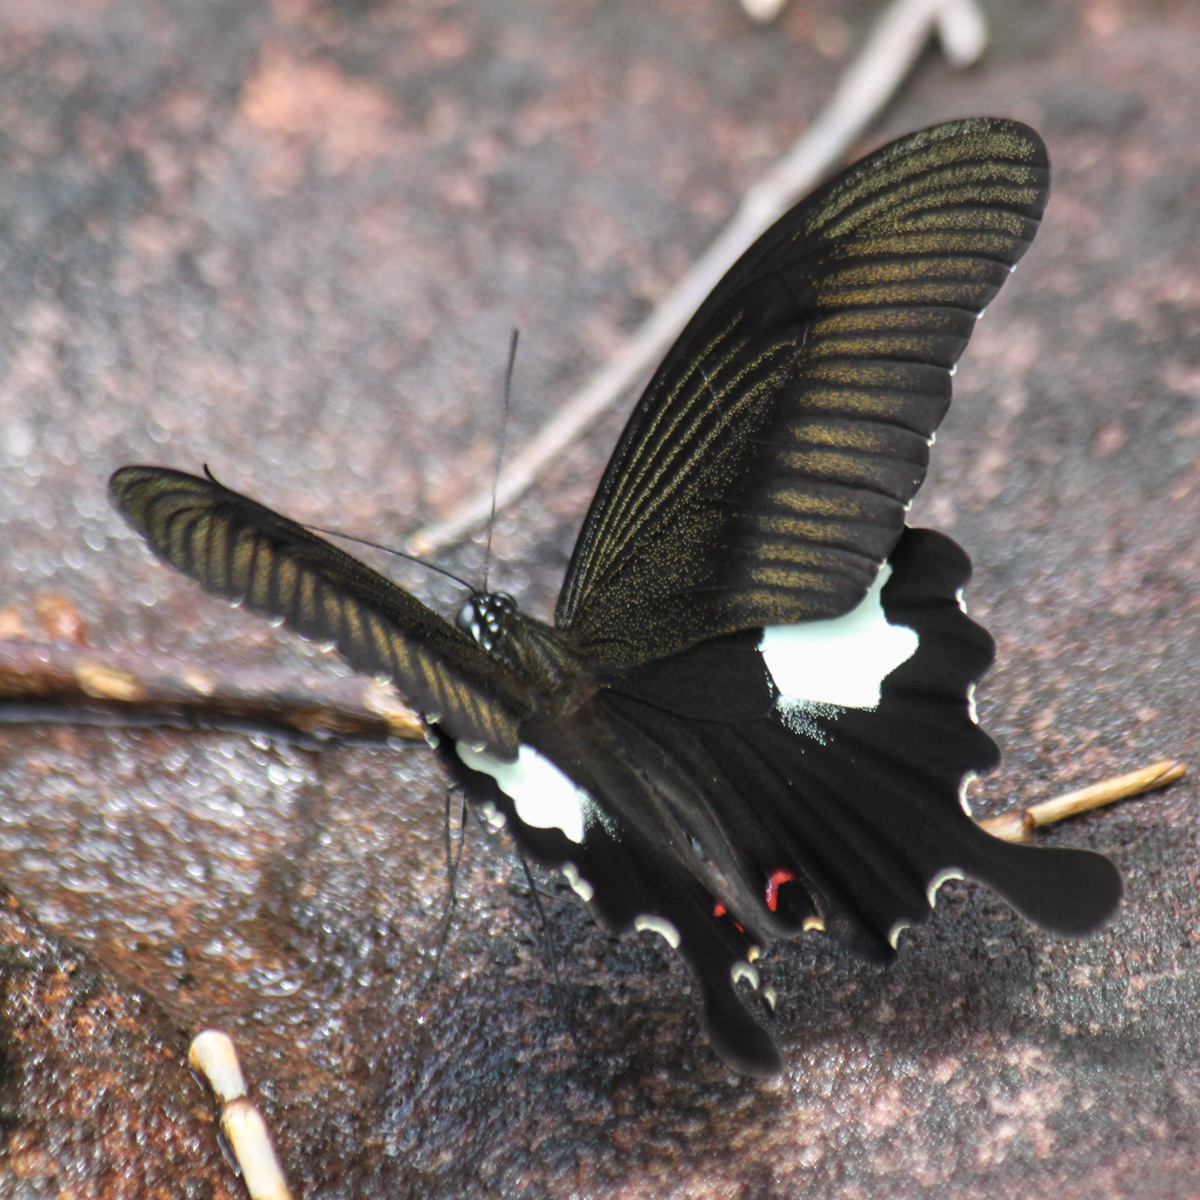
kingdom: Animalia
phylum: Arthropoda
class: Insecta
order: Lepidoptera
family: Papilionidae
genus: Papilio
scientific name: Papilio helenus
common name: Red helen
